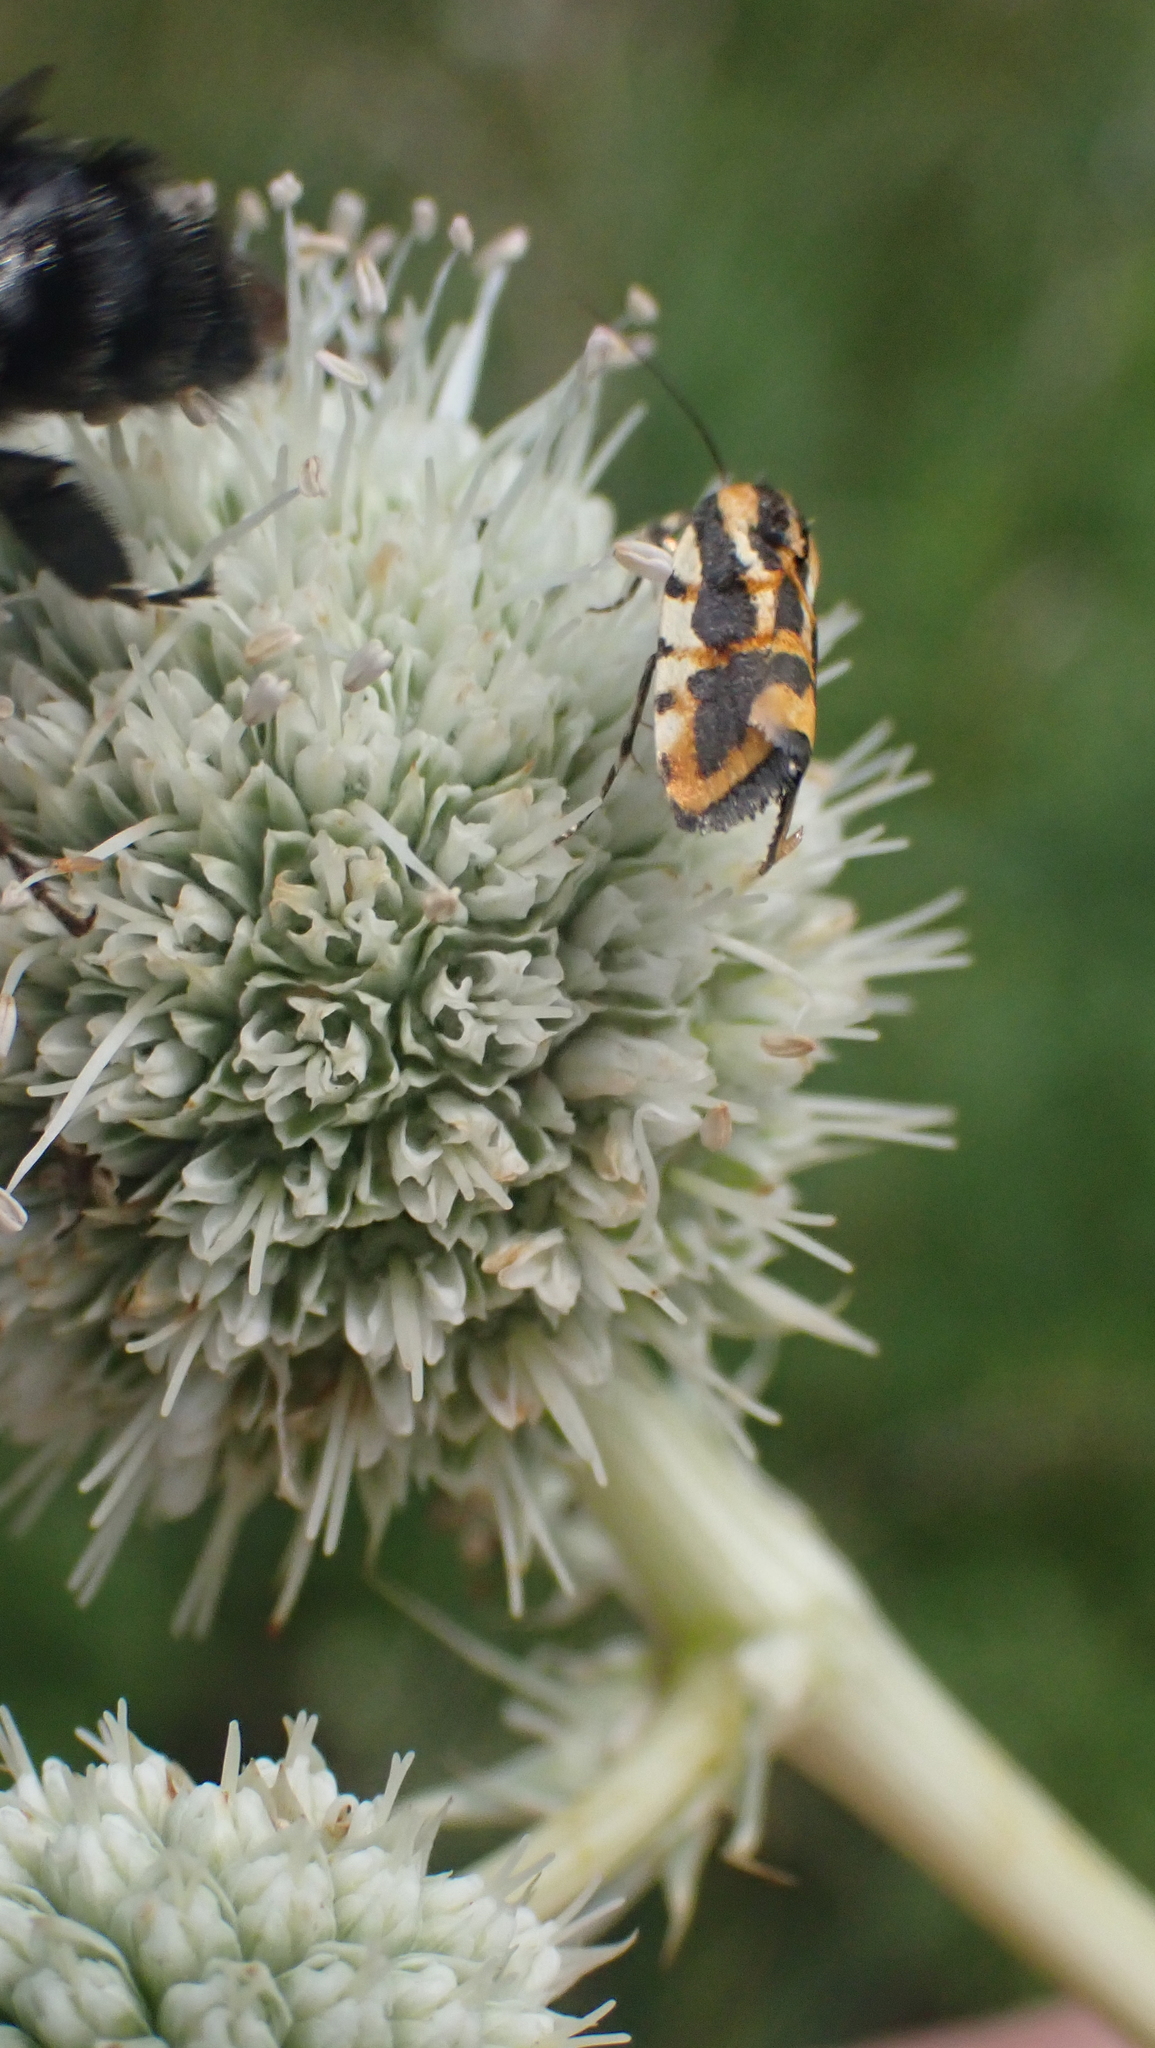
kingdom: Animalia
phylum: Arthropoda
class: Insecta
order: Lepidoptera
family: Noctuidae
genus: Acontia
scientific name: Acontia leo
